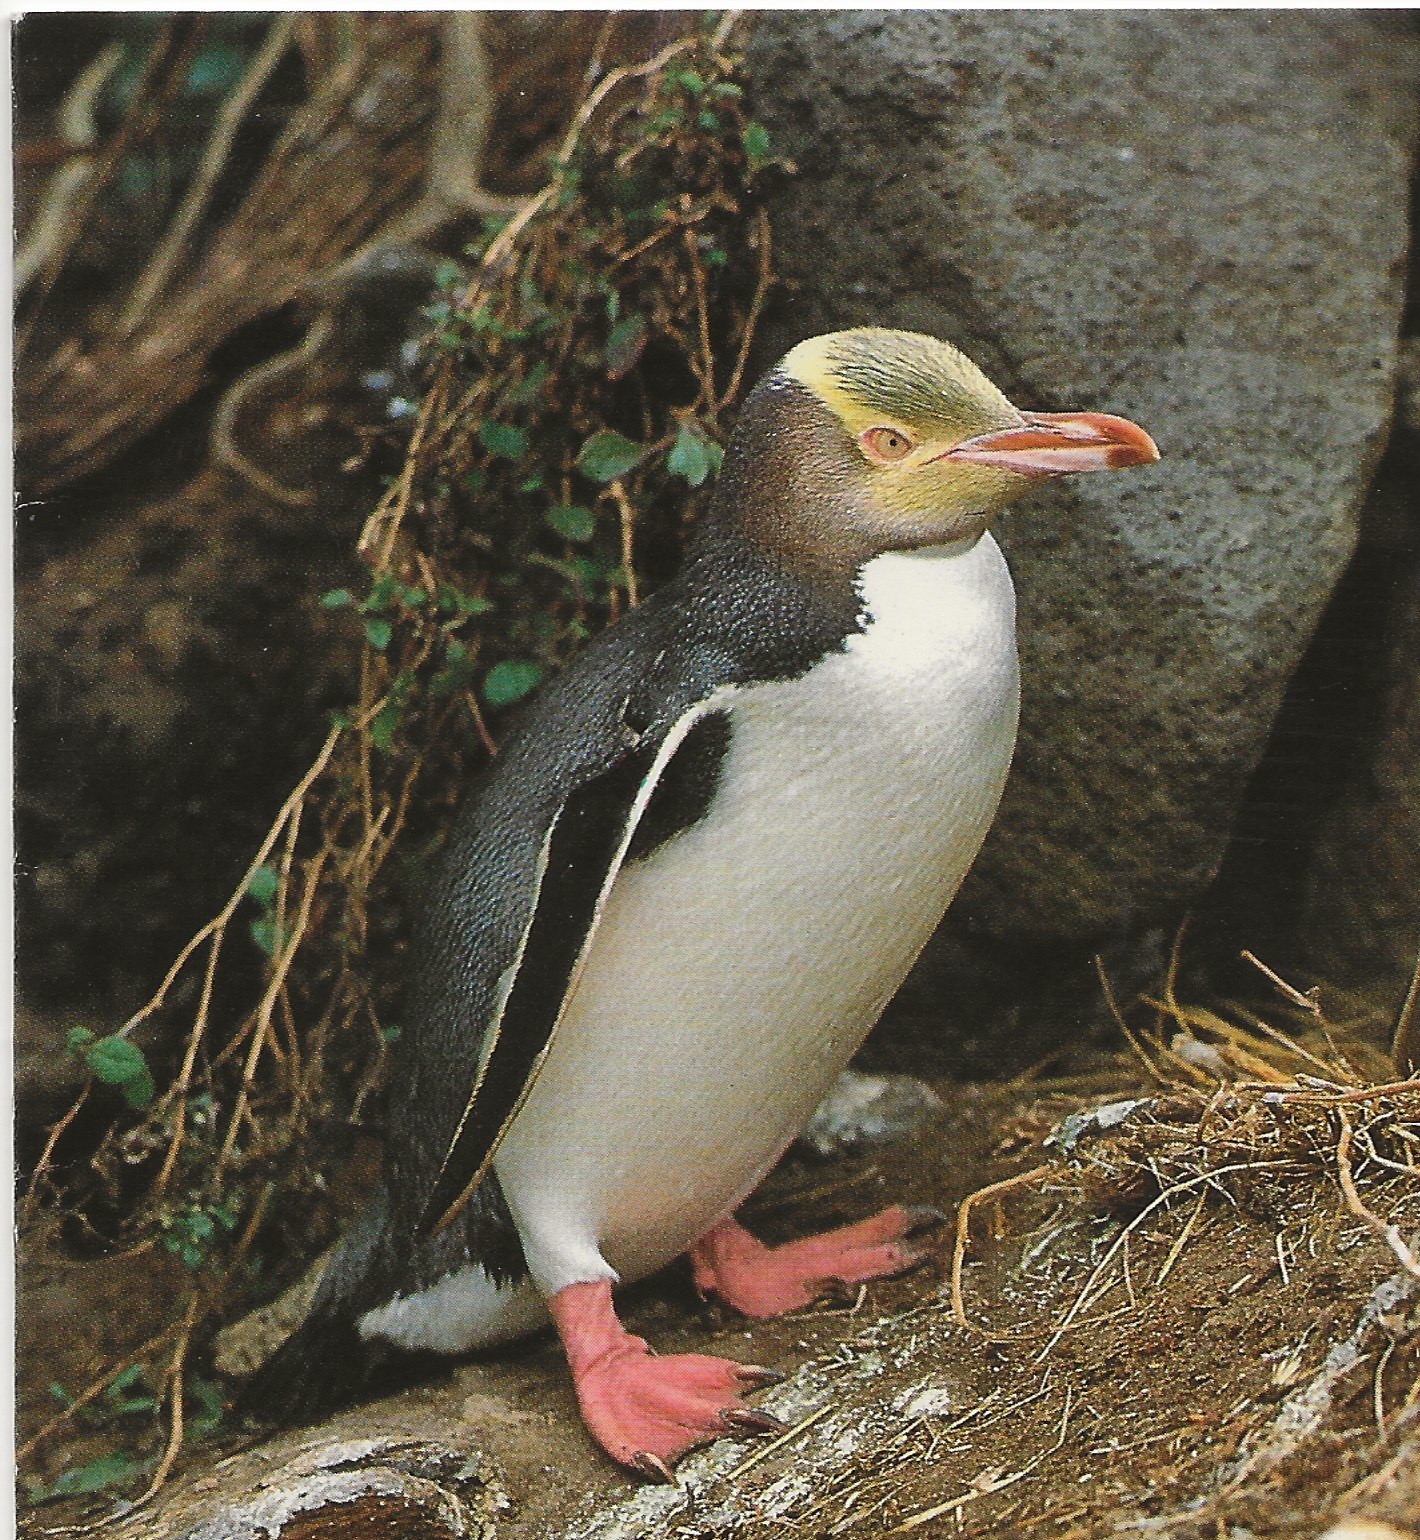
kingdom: Animalia
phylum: Chordata
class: Aves
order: Sphenisciformes
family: Spheniscidae
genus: Megadyptes
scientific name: Megadyptes antipodes
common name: Yellow-eyed penguin
